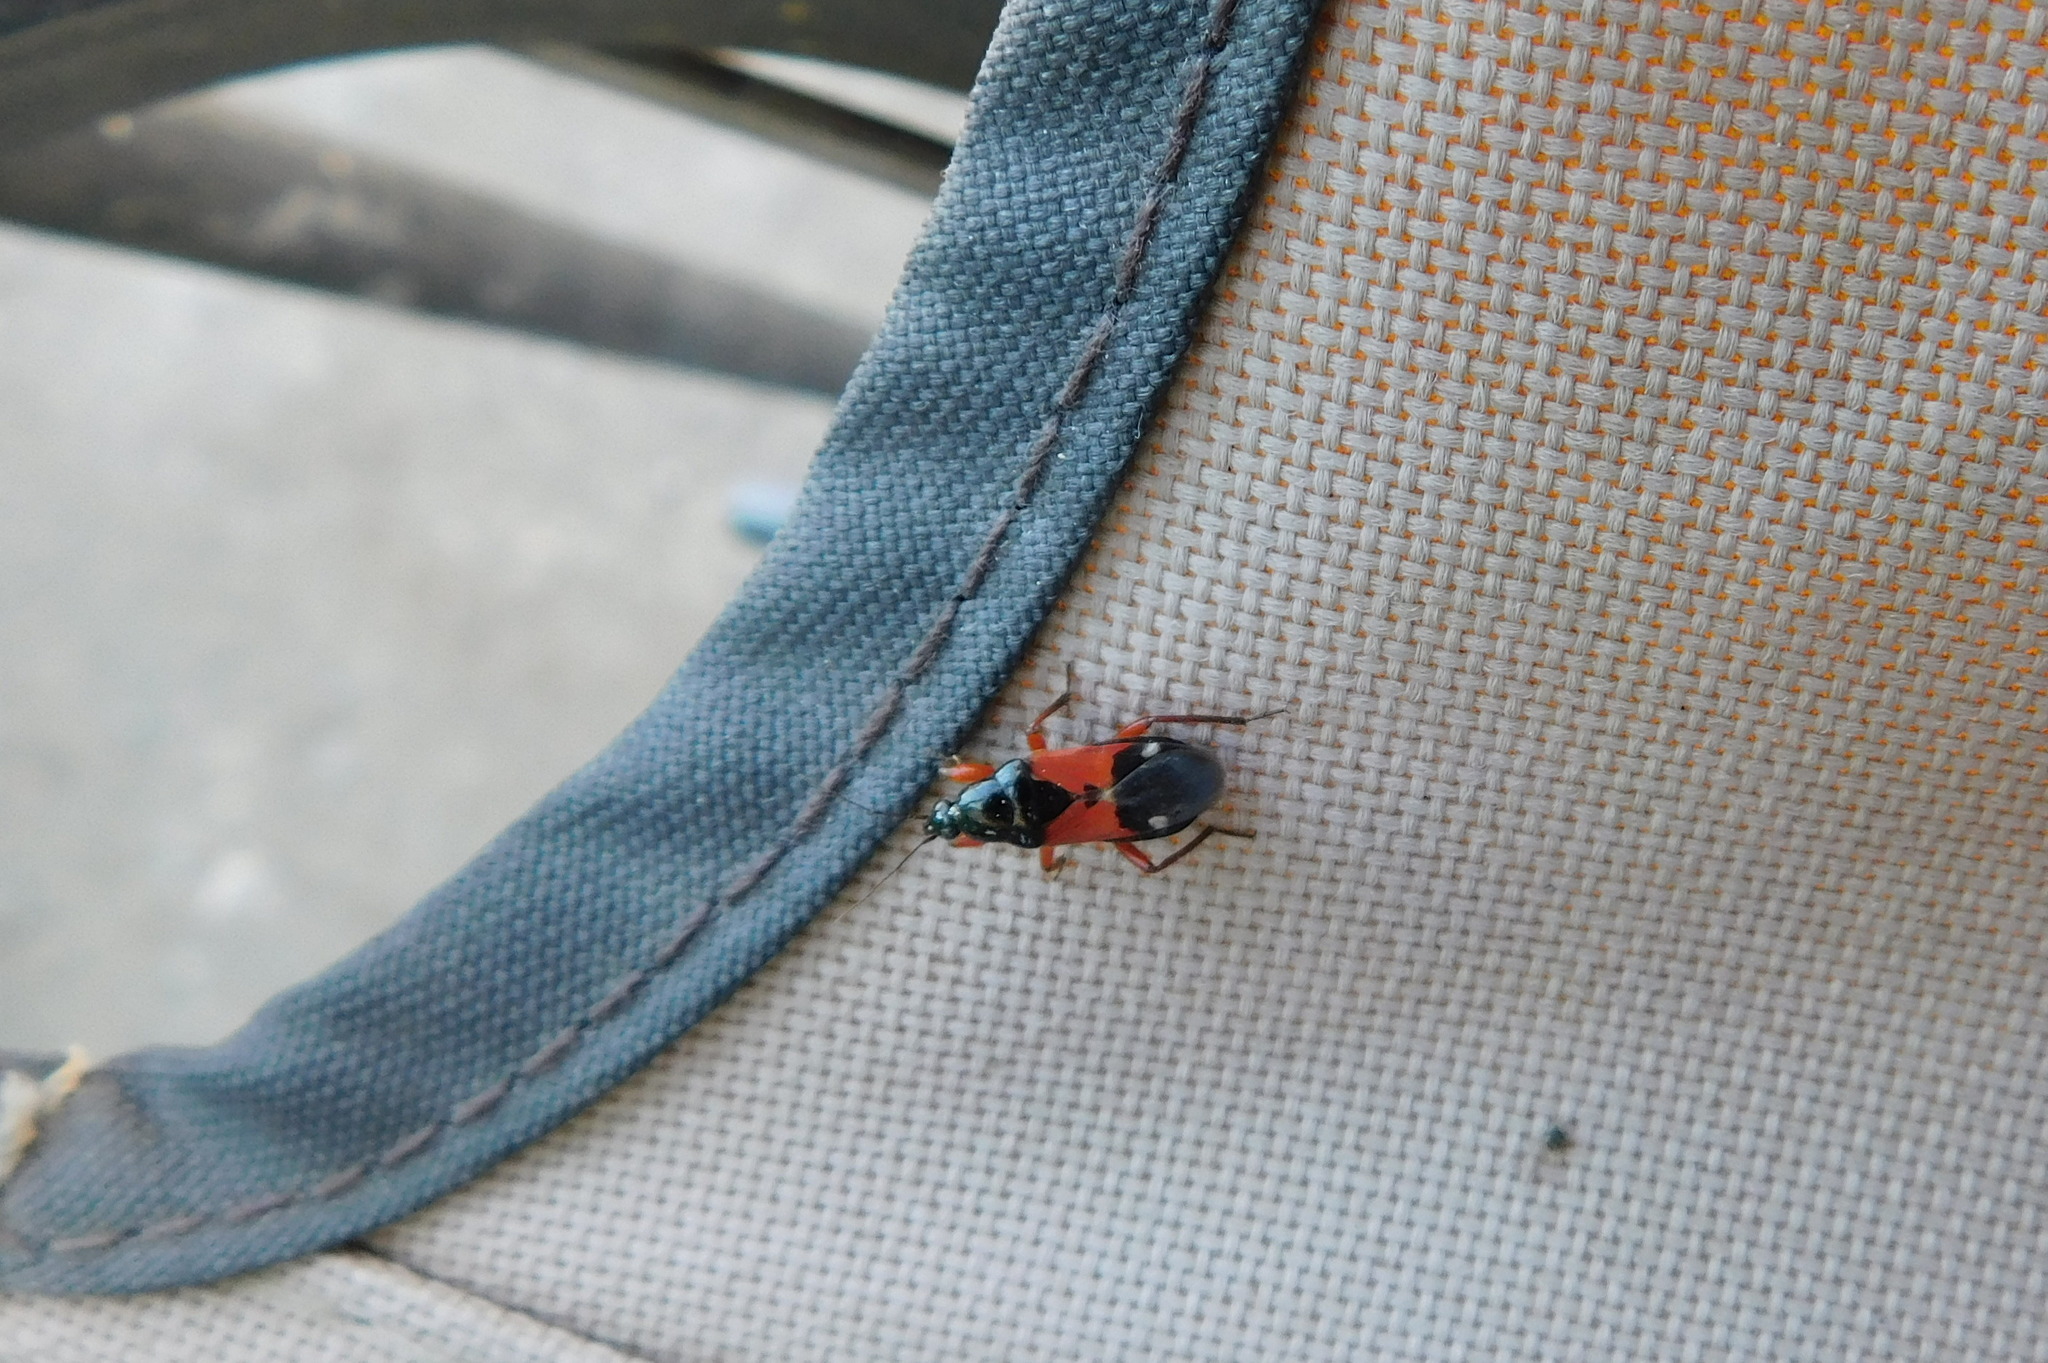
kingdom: Animalia
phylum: Arthropoda
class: Insecta
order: Hemiptera
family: Nabidae
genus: Prostemma
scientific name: Prostemma guttula
